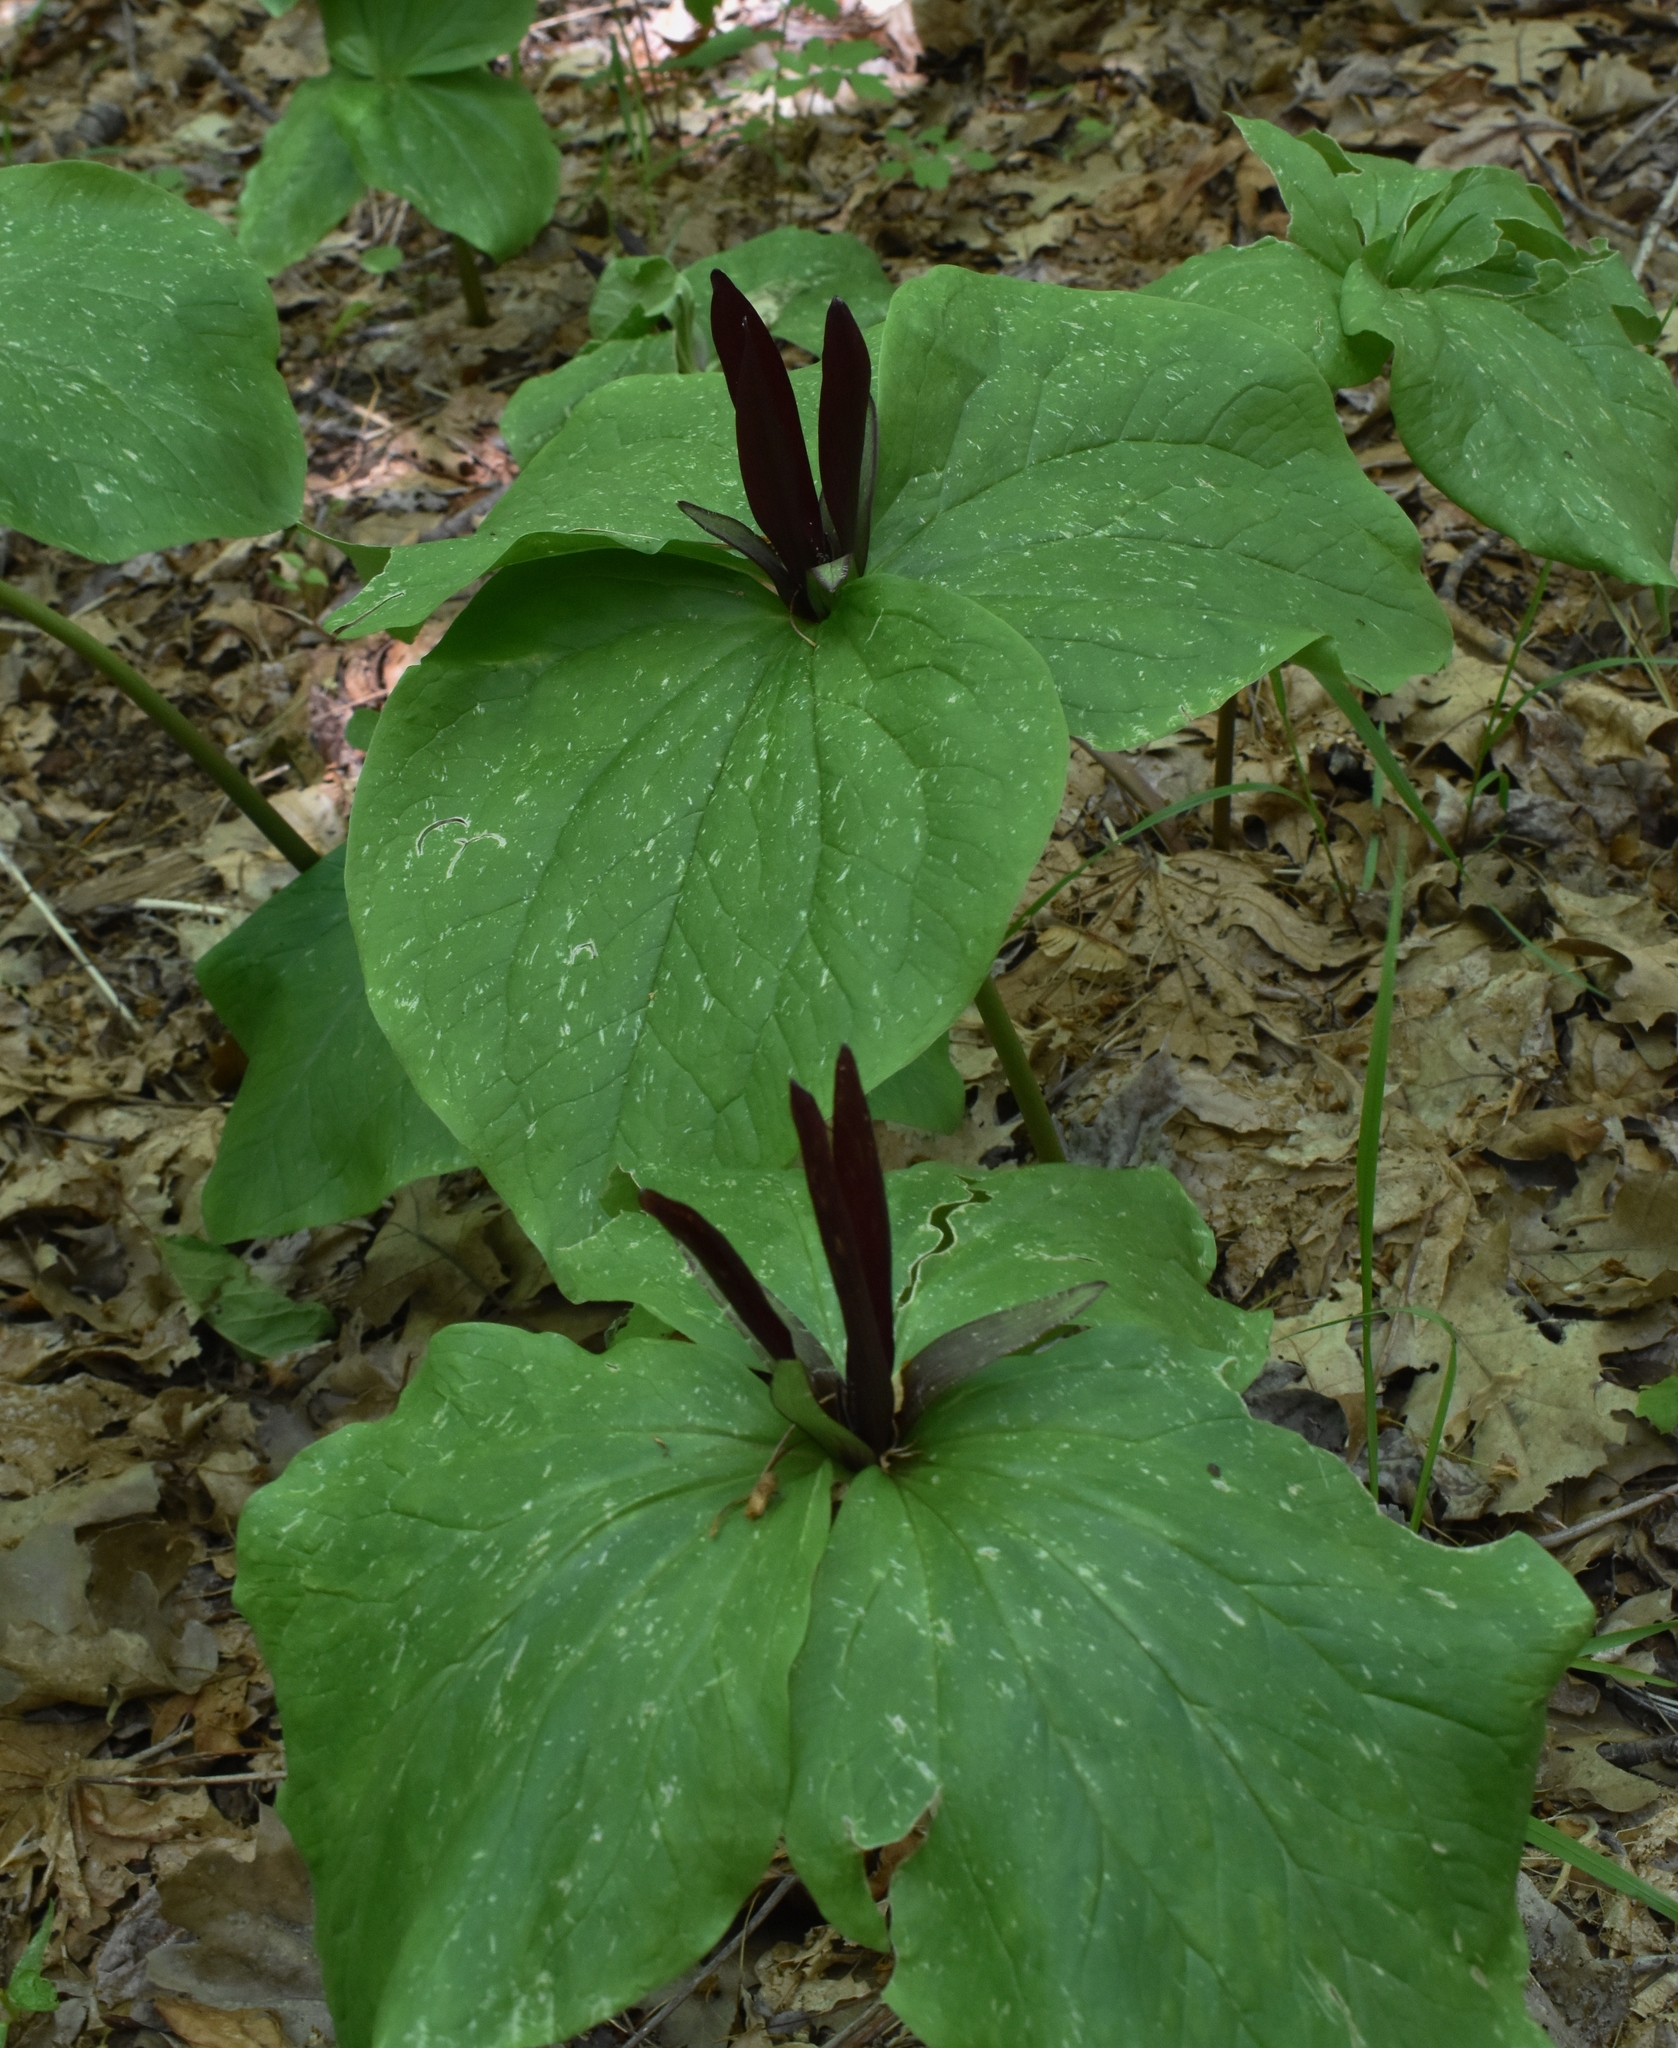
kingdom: Plantae
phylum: Tracheophyta
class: Liliopsida
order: Liliales
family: Melanthiaceae
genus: Trillium
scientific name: Trillium angustipetalum
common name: Narrow-petaled trillium
